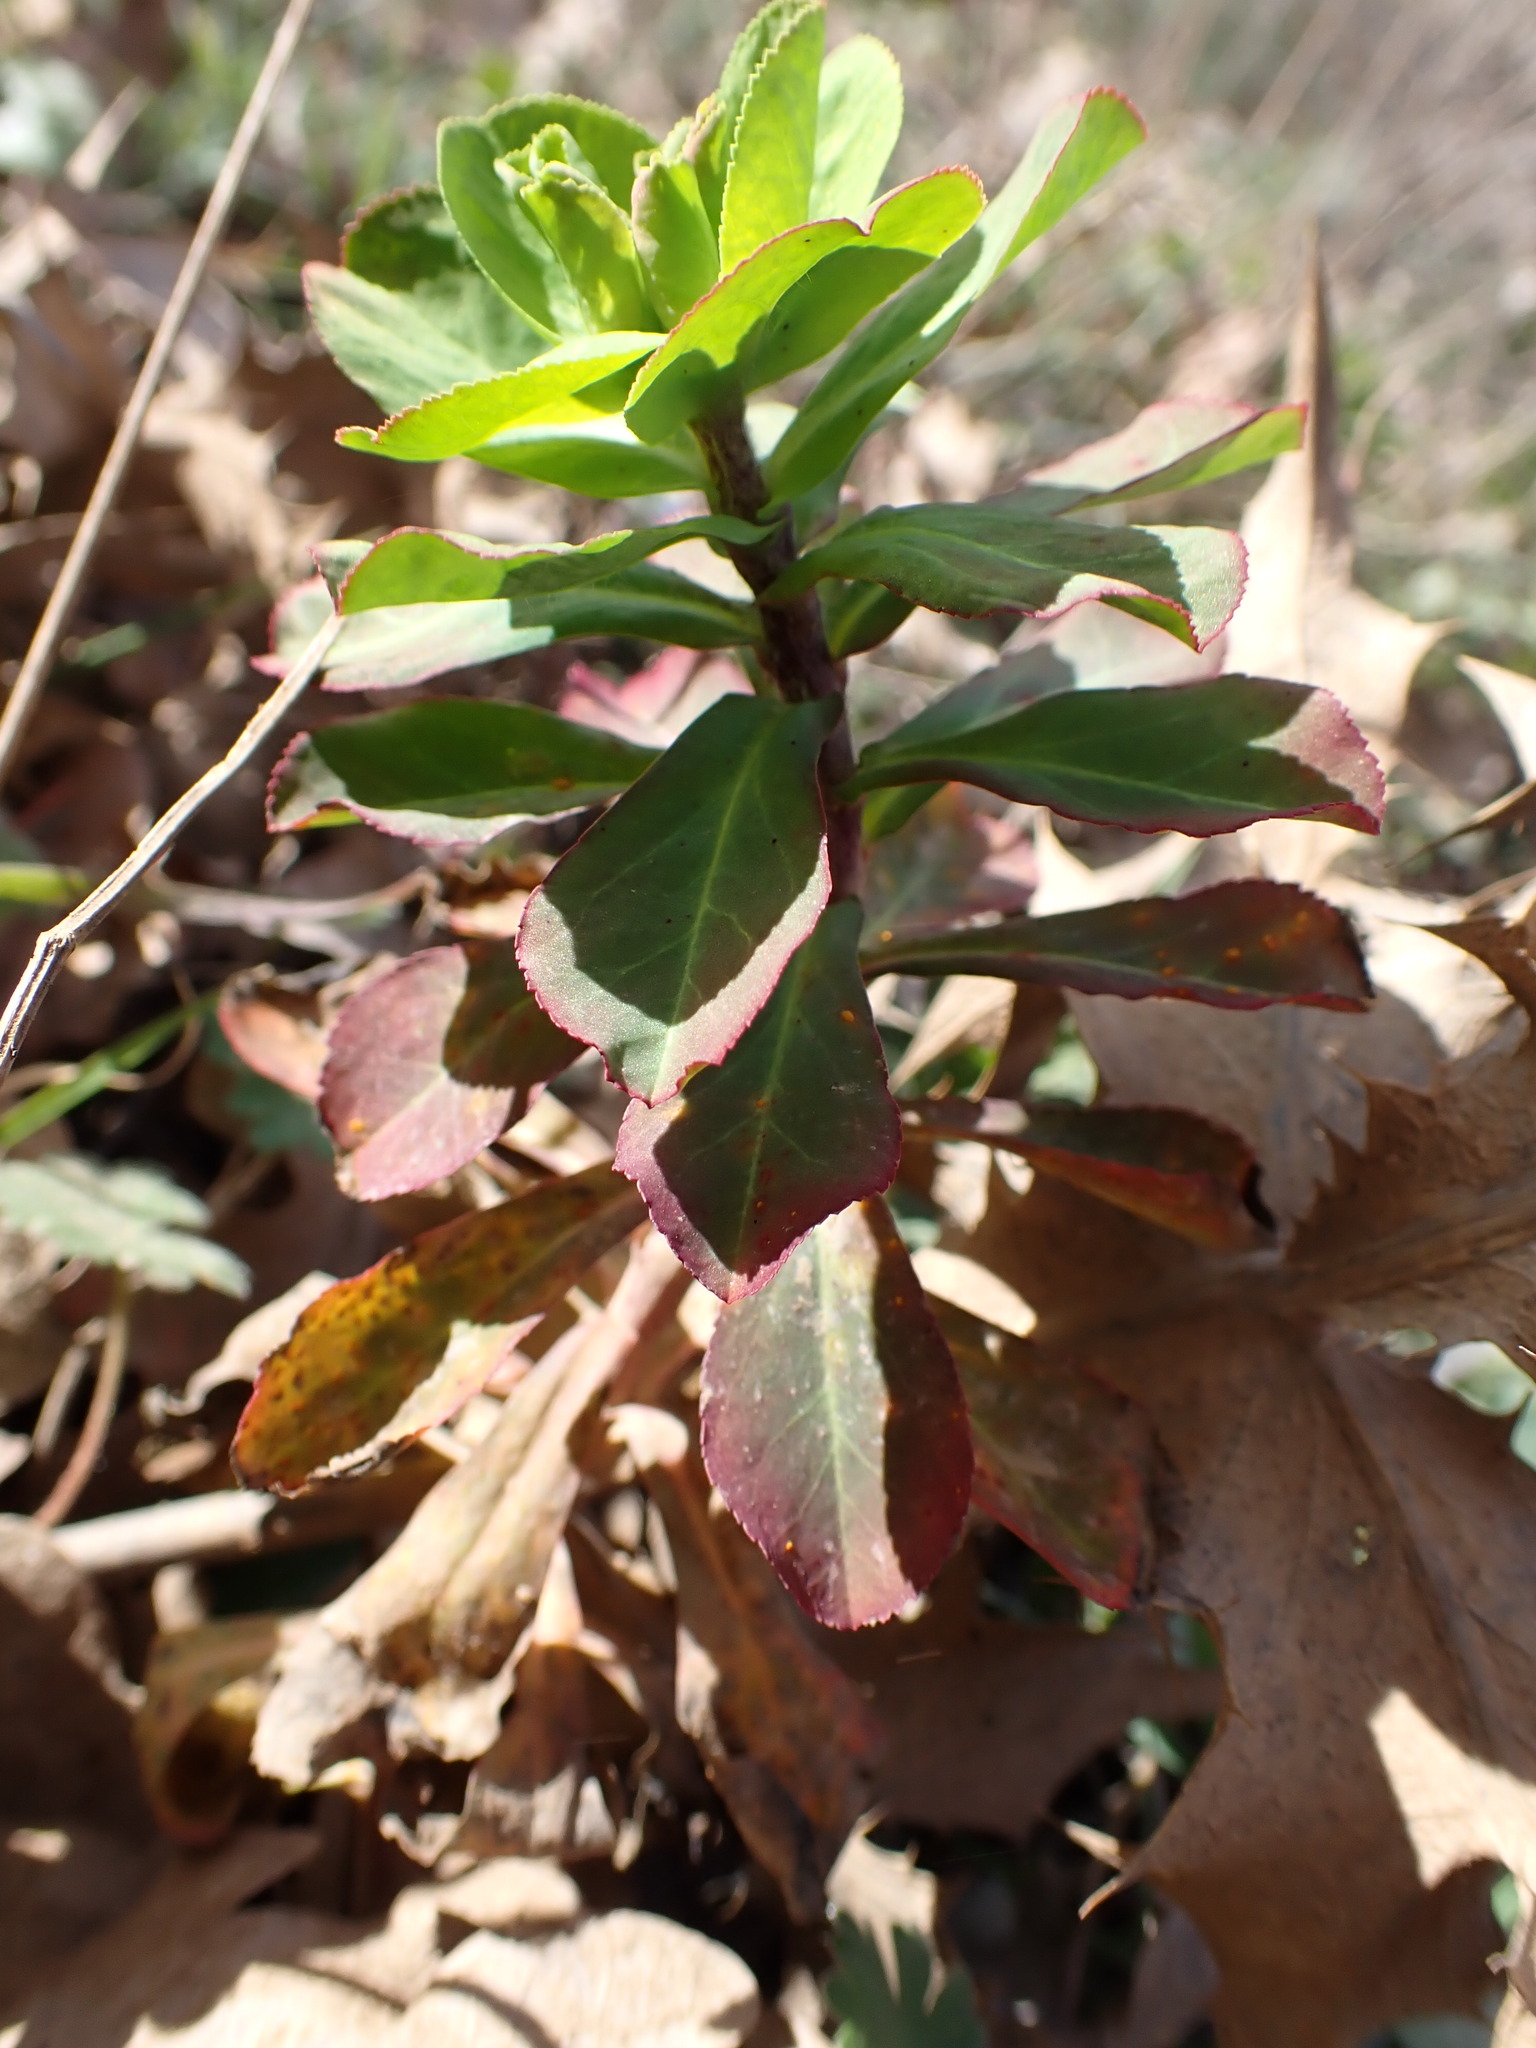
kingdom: Plantae
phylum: Tracheophyta
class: Magnoliopsida
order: Malpighiales
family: Euphorbiaceae
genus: Euphorbia
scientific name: Euphorbia helioscopia
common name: Sun spurge
